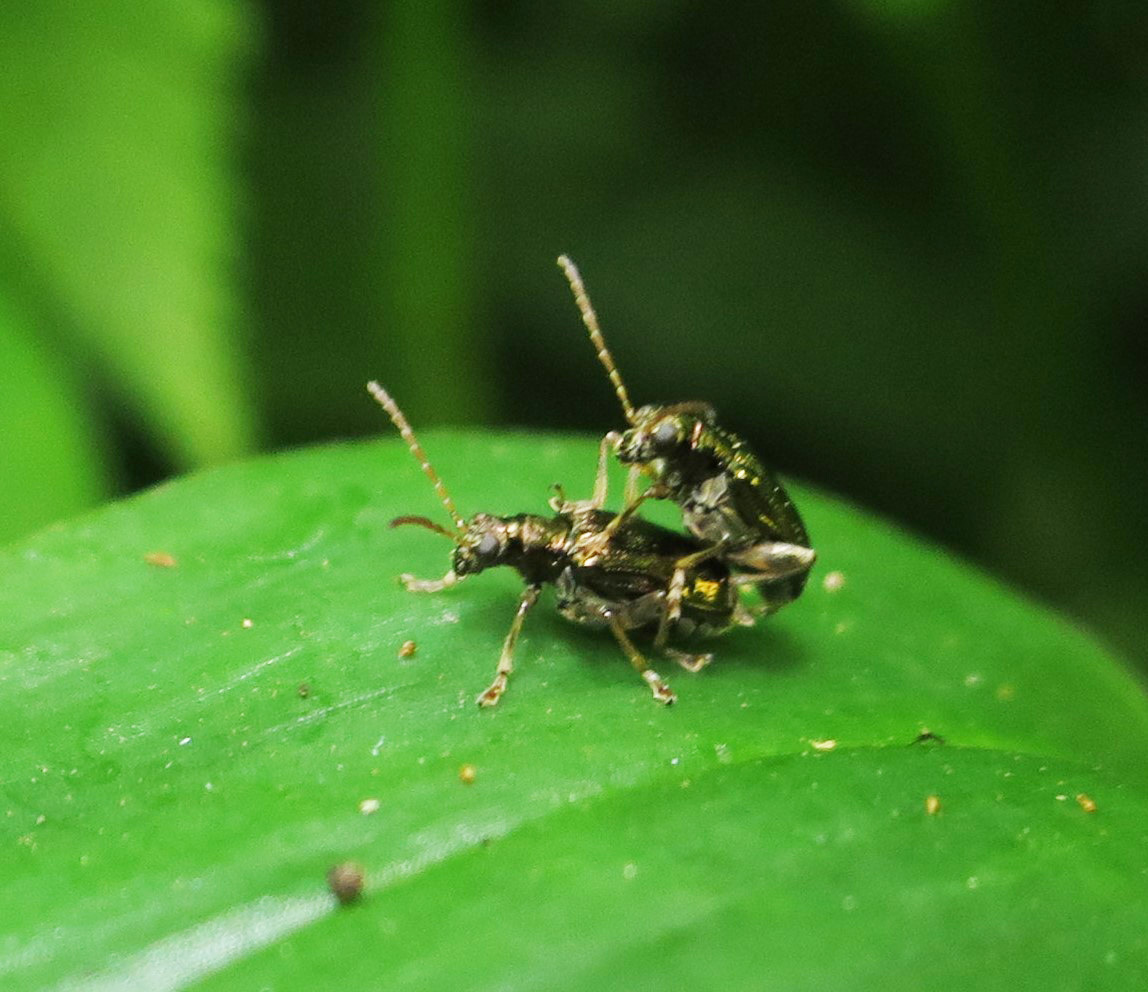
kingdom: Animalia
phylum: Arthropoda
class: Insecta
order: Coleoptera
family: Chrysomelidae
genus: Neolema
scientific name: Neolema ogloblini
